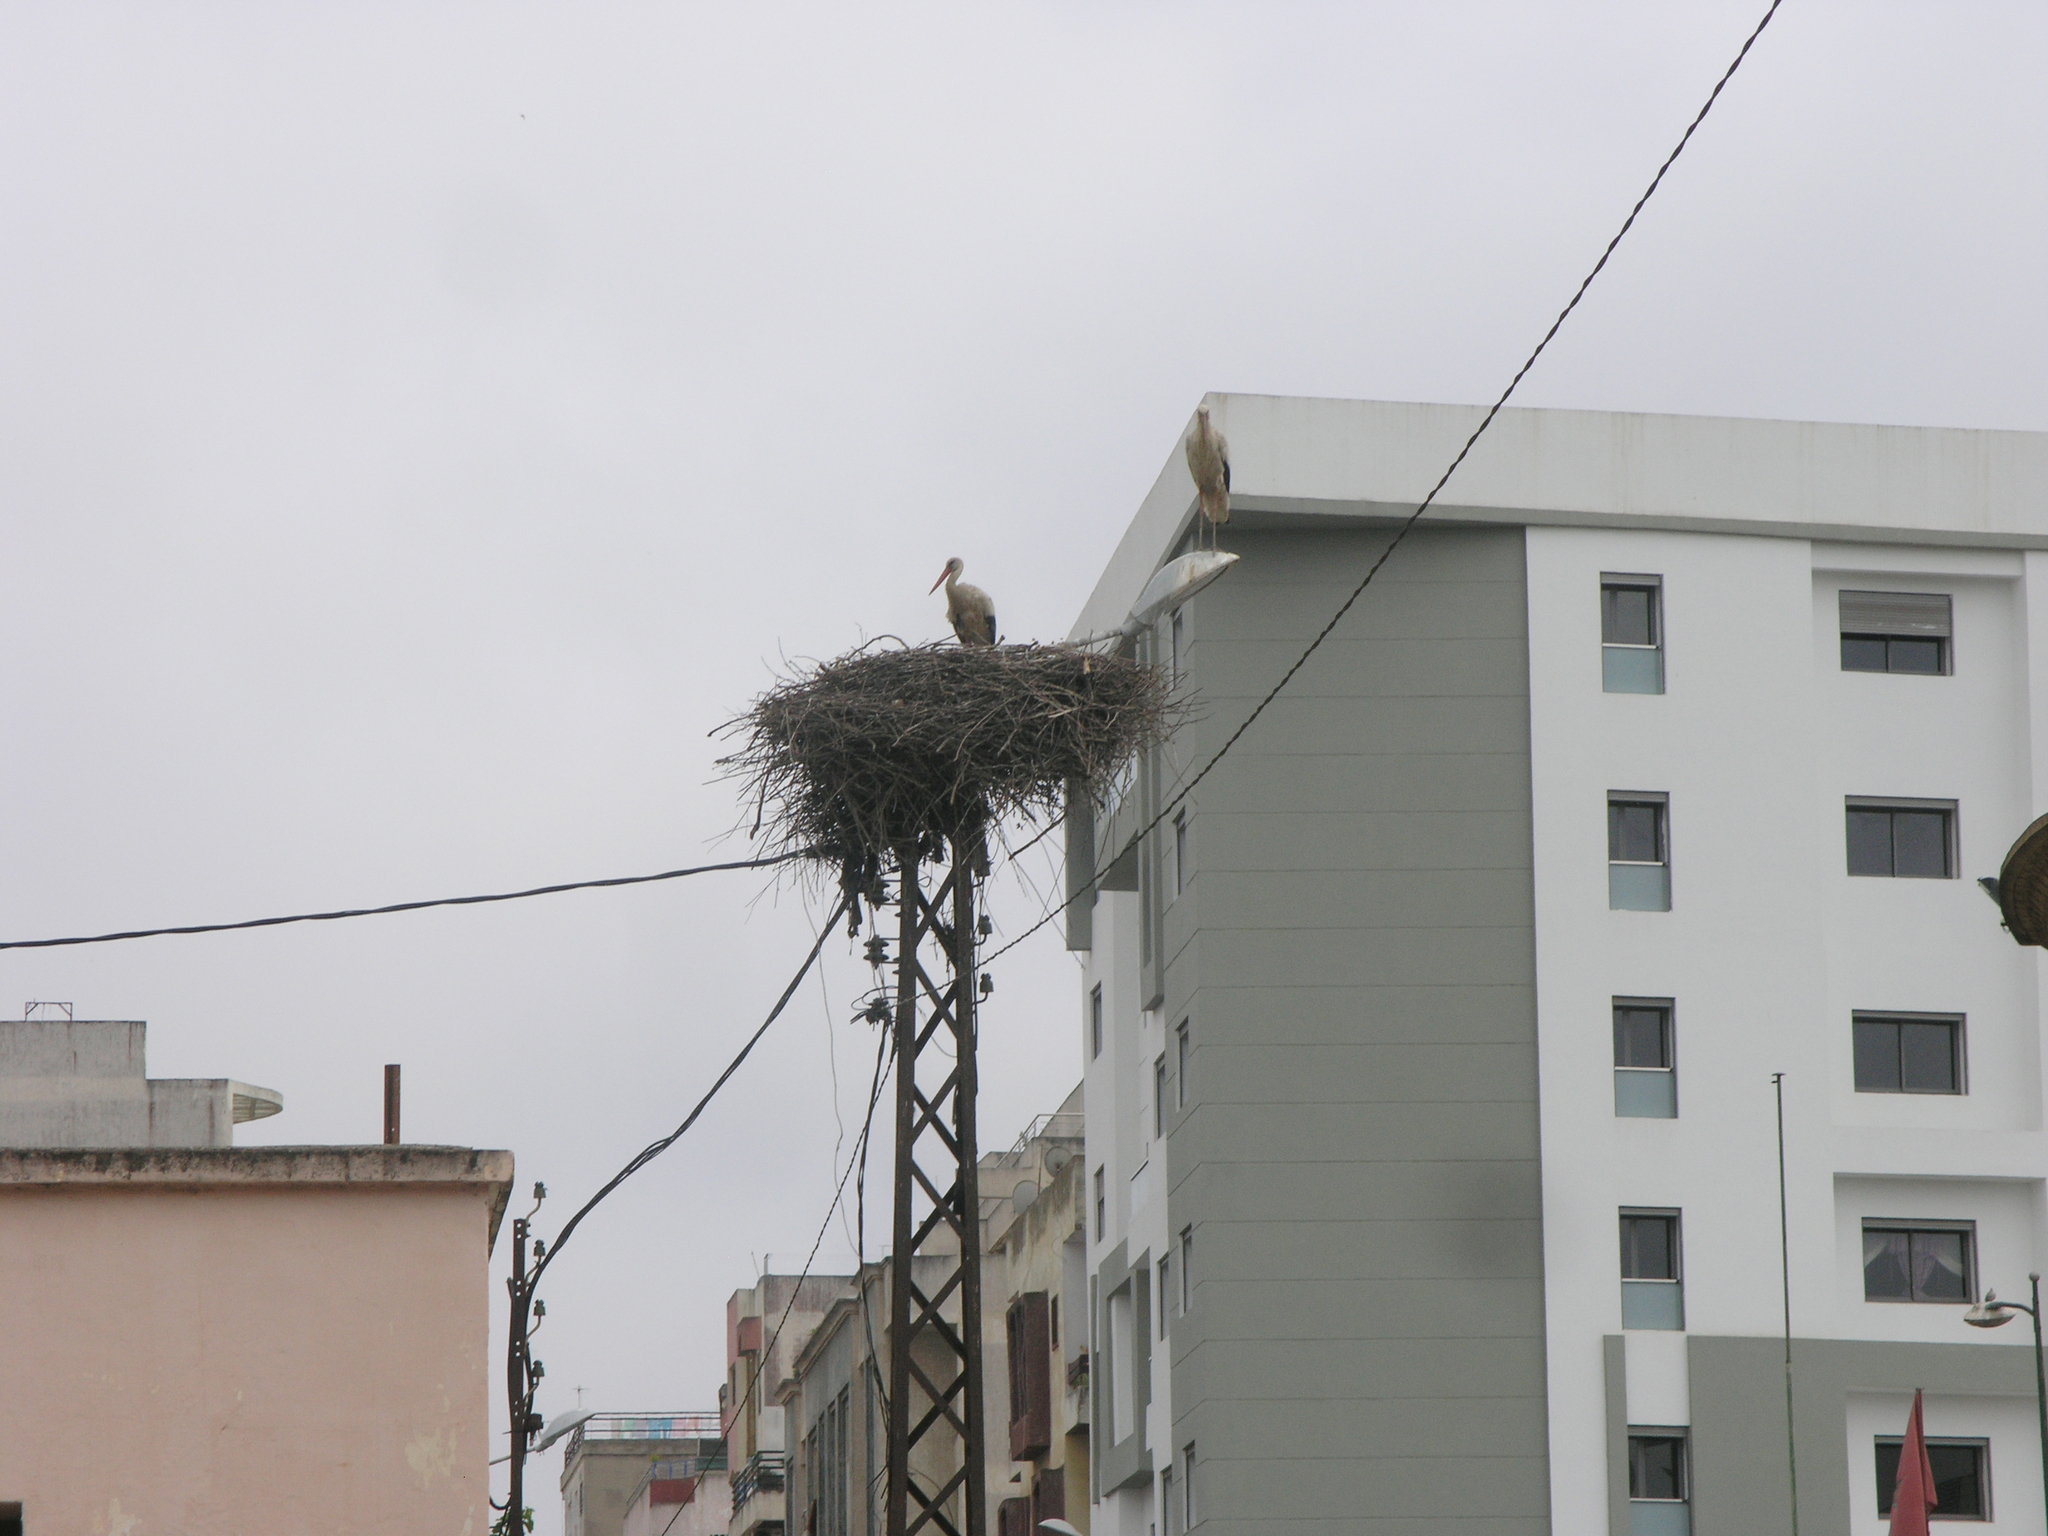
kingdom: Animalia
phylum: Chordata
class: Aves
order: Ciconiiformes
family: Ciconiidae
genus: Ciconia
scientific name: Ciconia ciconia
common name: White stork
